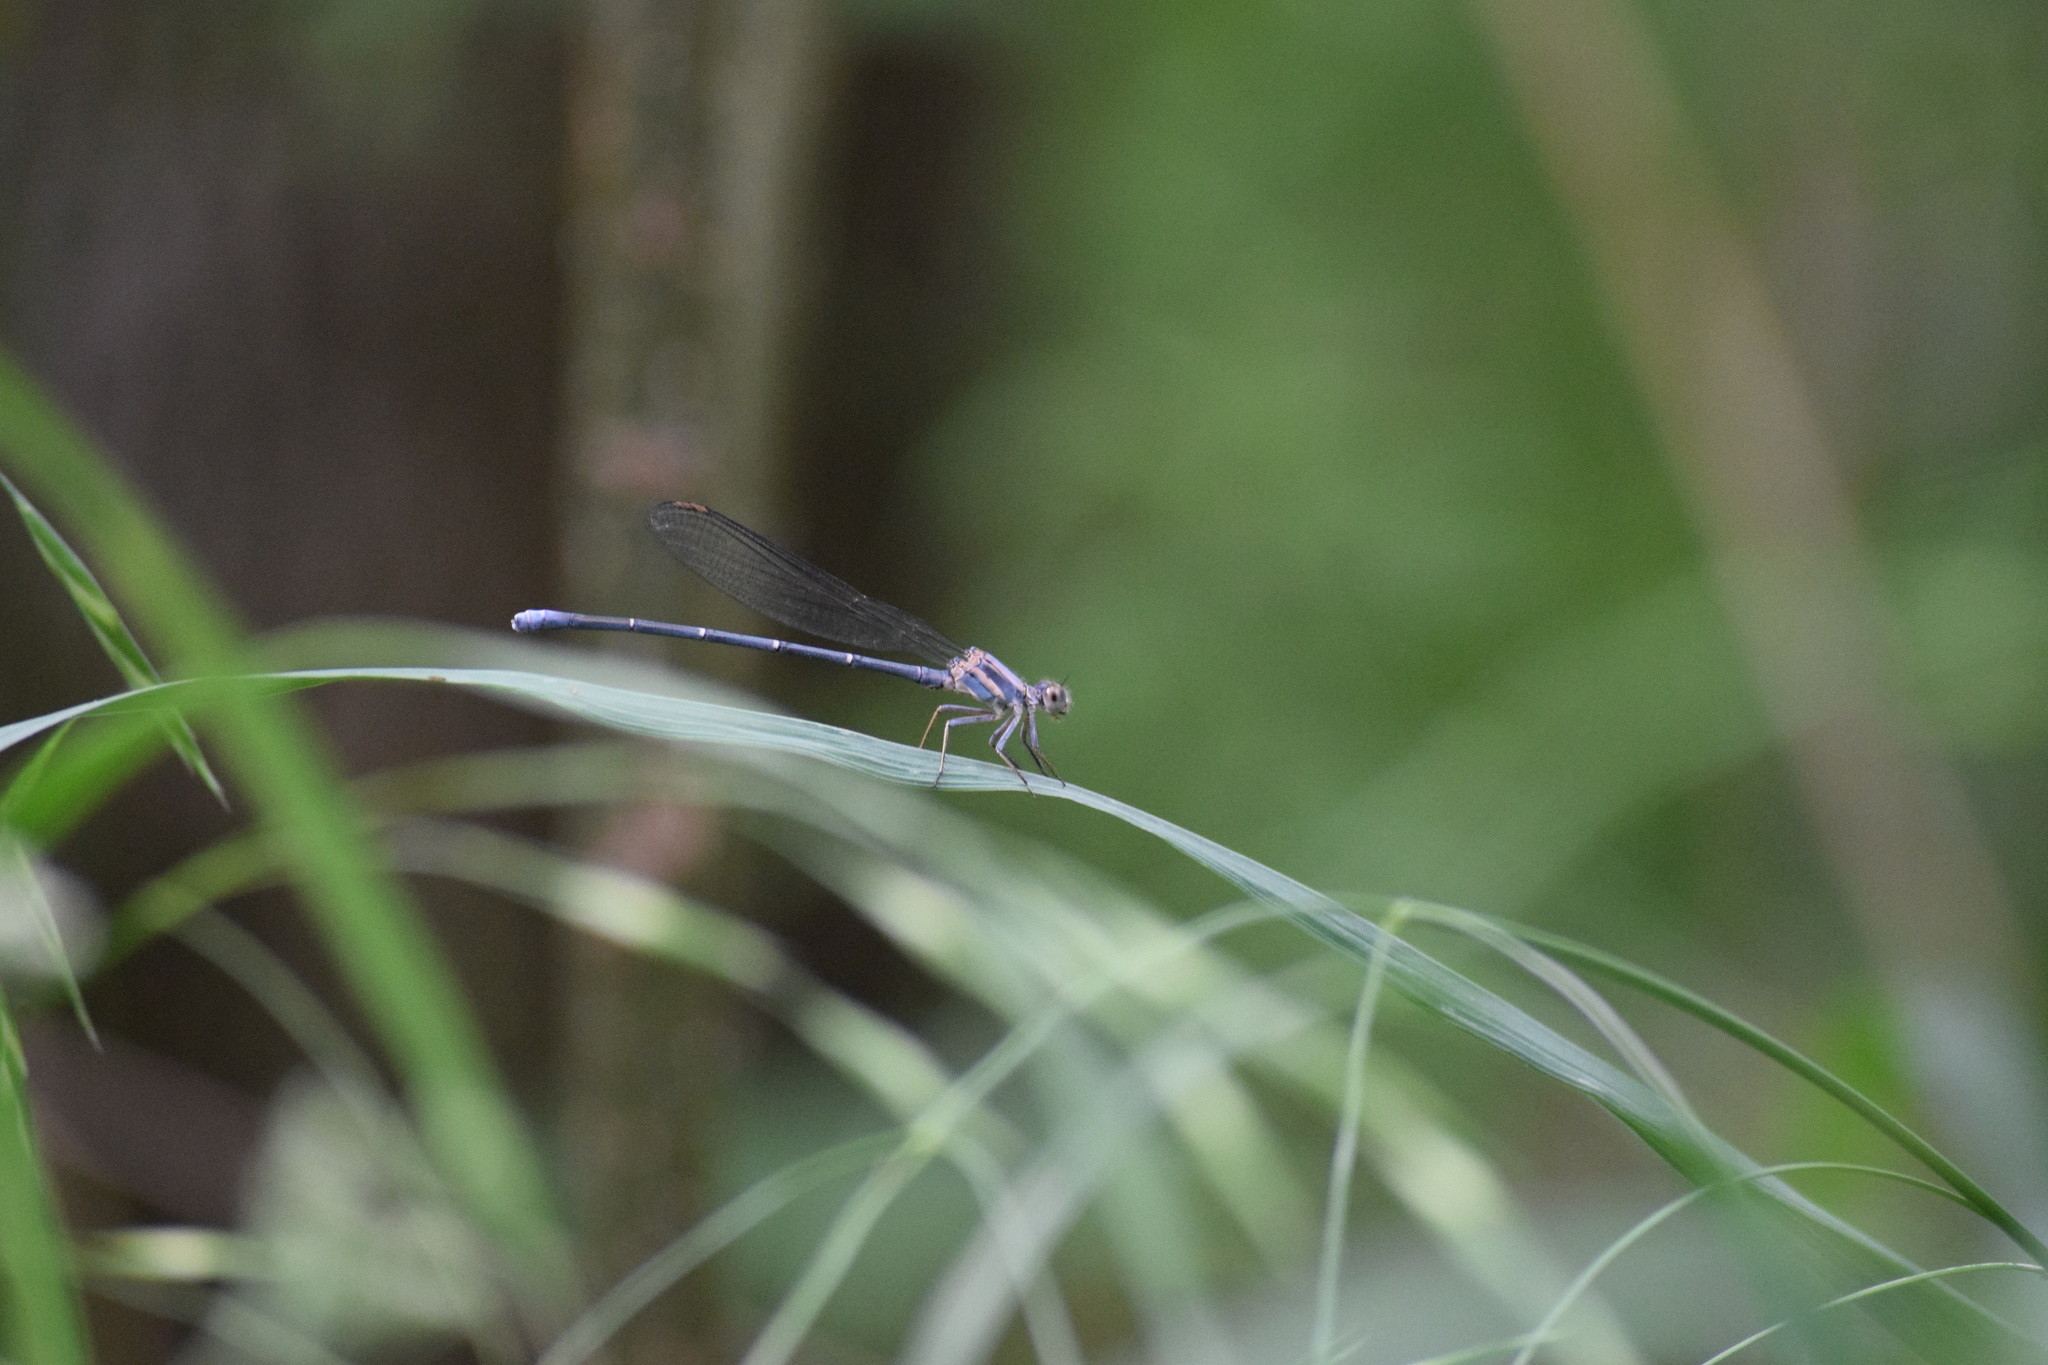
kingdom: Animalia
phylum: Arthropoda
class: Insecta
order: Odonata
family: Coenagrionidae
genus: Argia
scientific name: Argia moesta
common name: Powdered dancer
